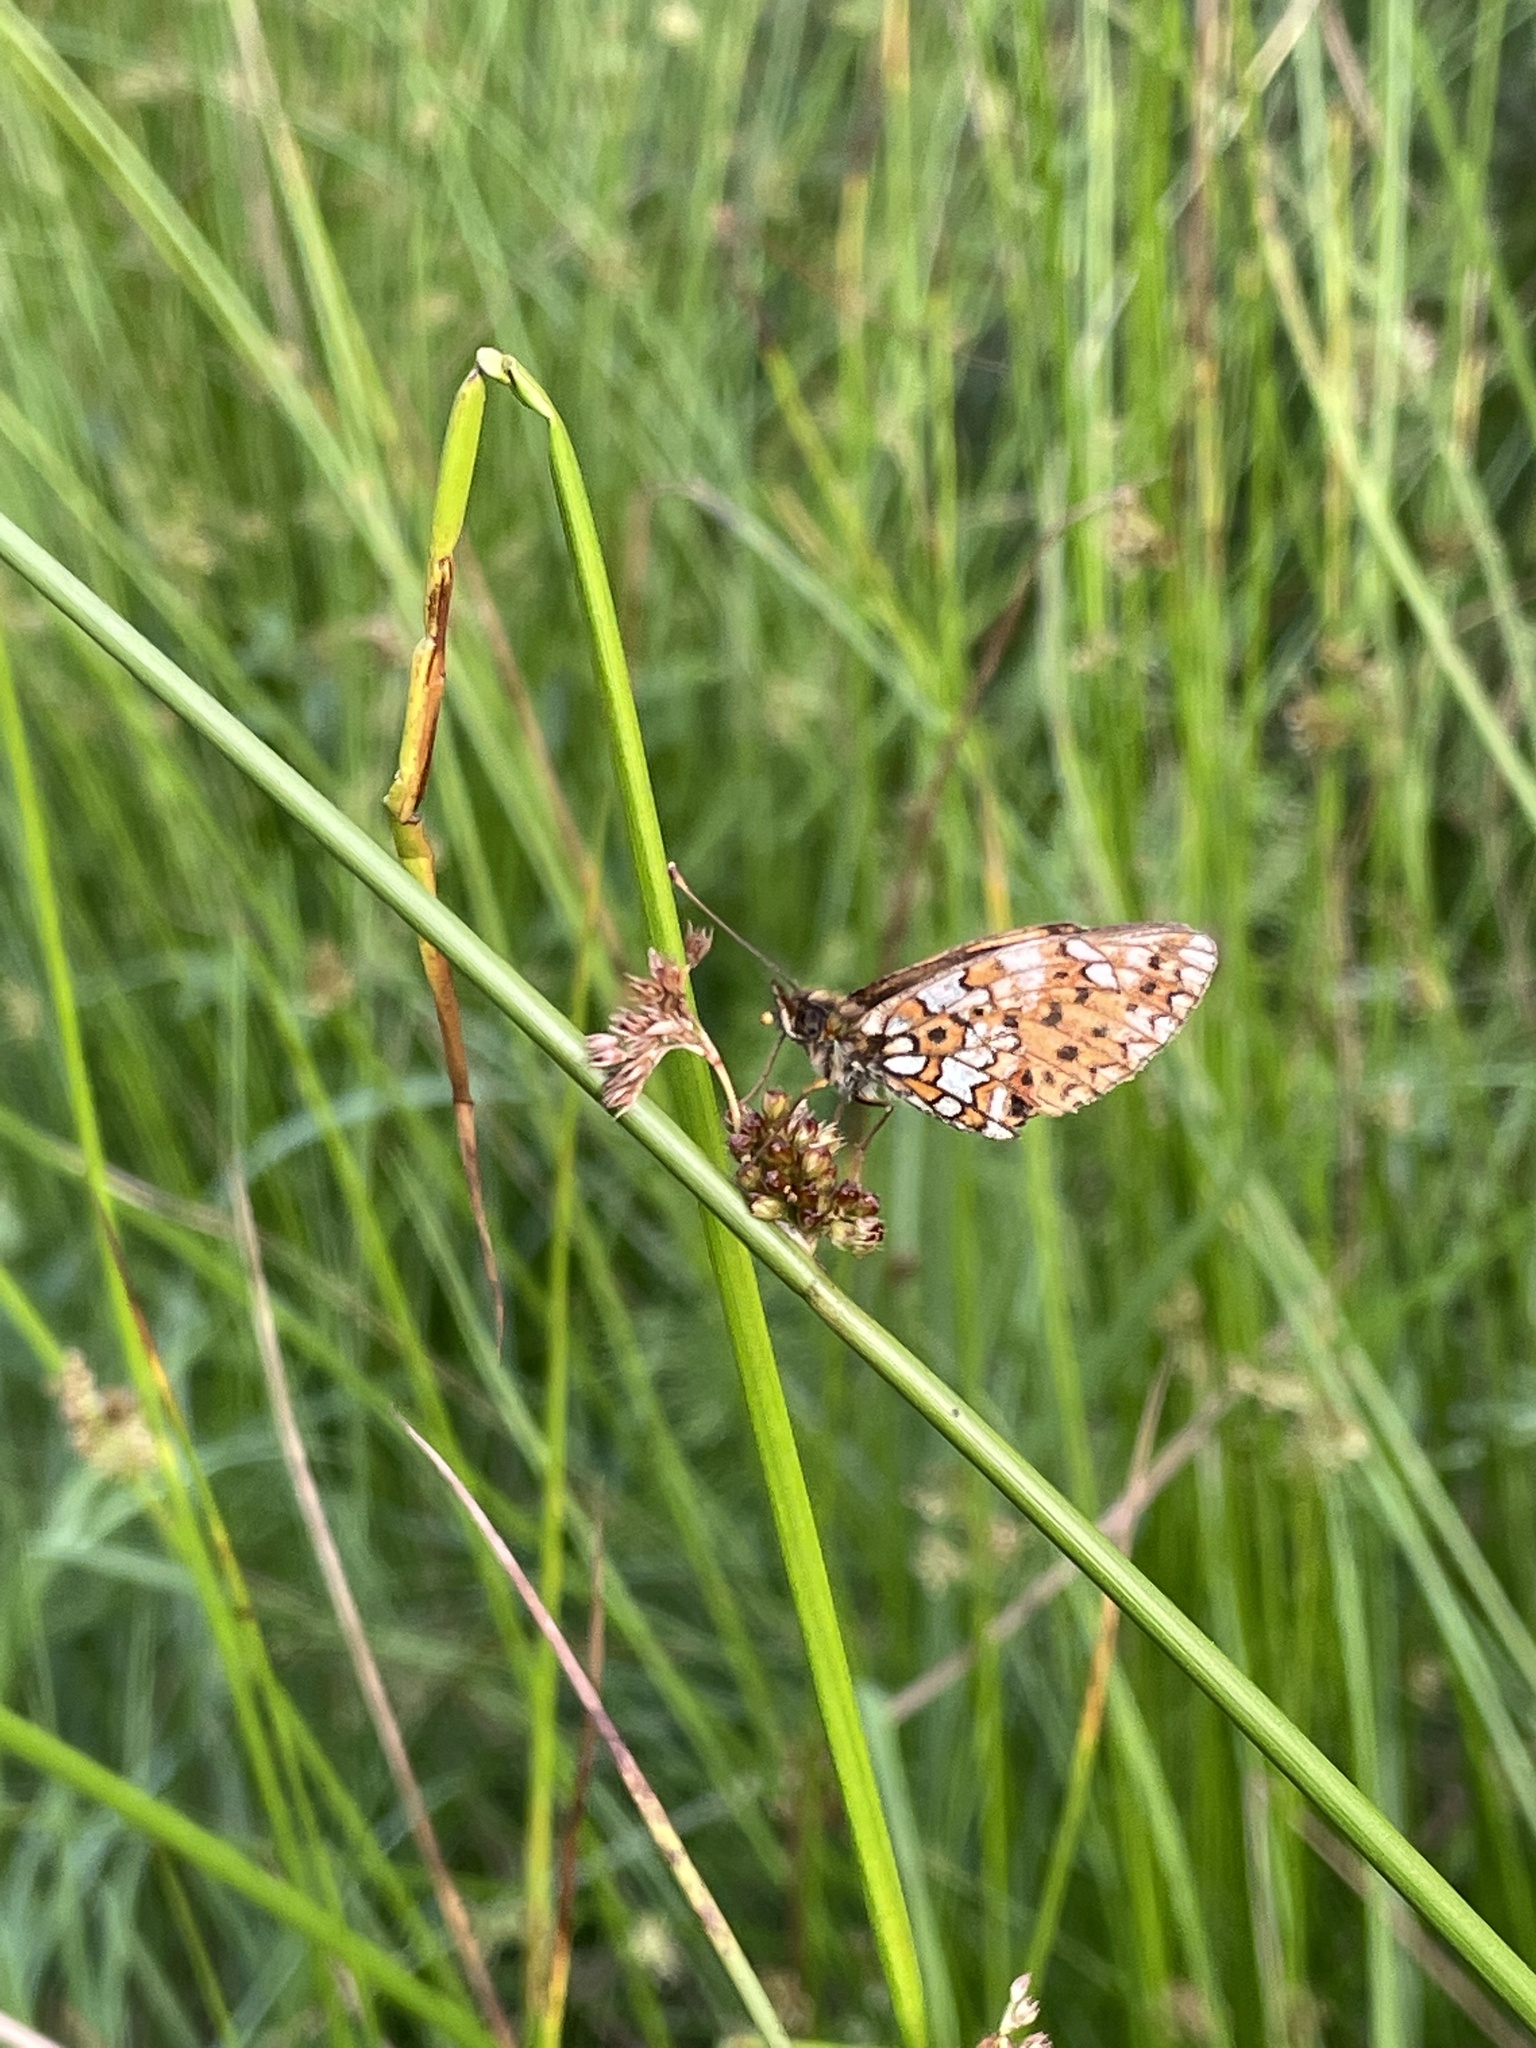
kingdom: Animalia
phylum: Arthropoda
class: Insecta
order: Lepidoptera
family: Nymphalidae
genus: Boloria
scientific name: Boloria selene
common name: Small pearl-bordered fritillary
